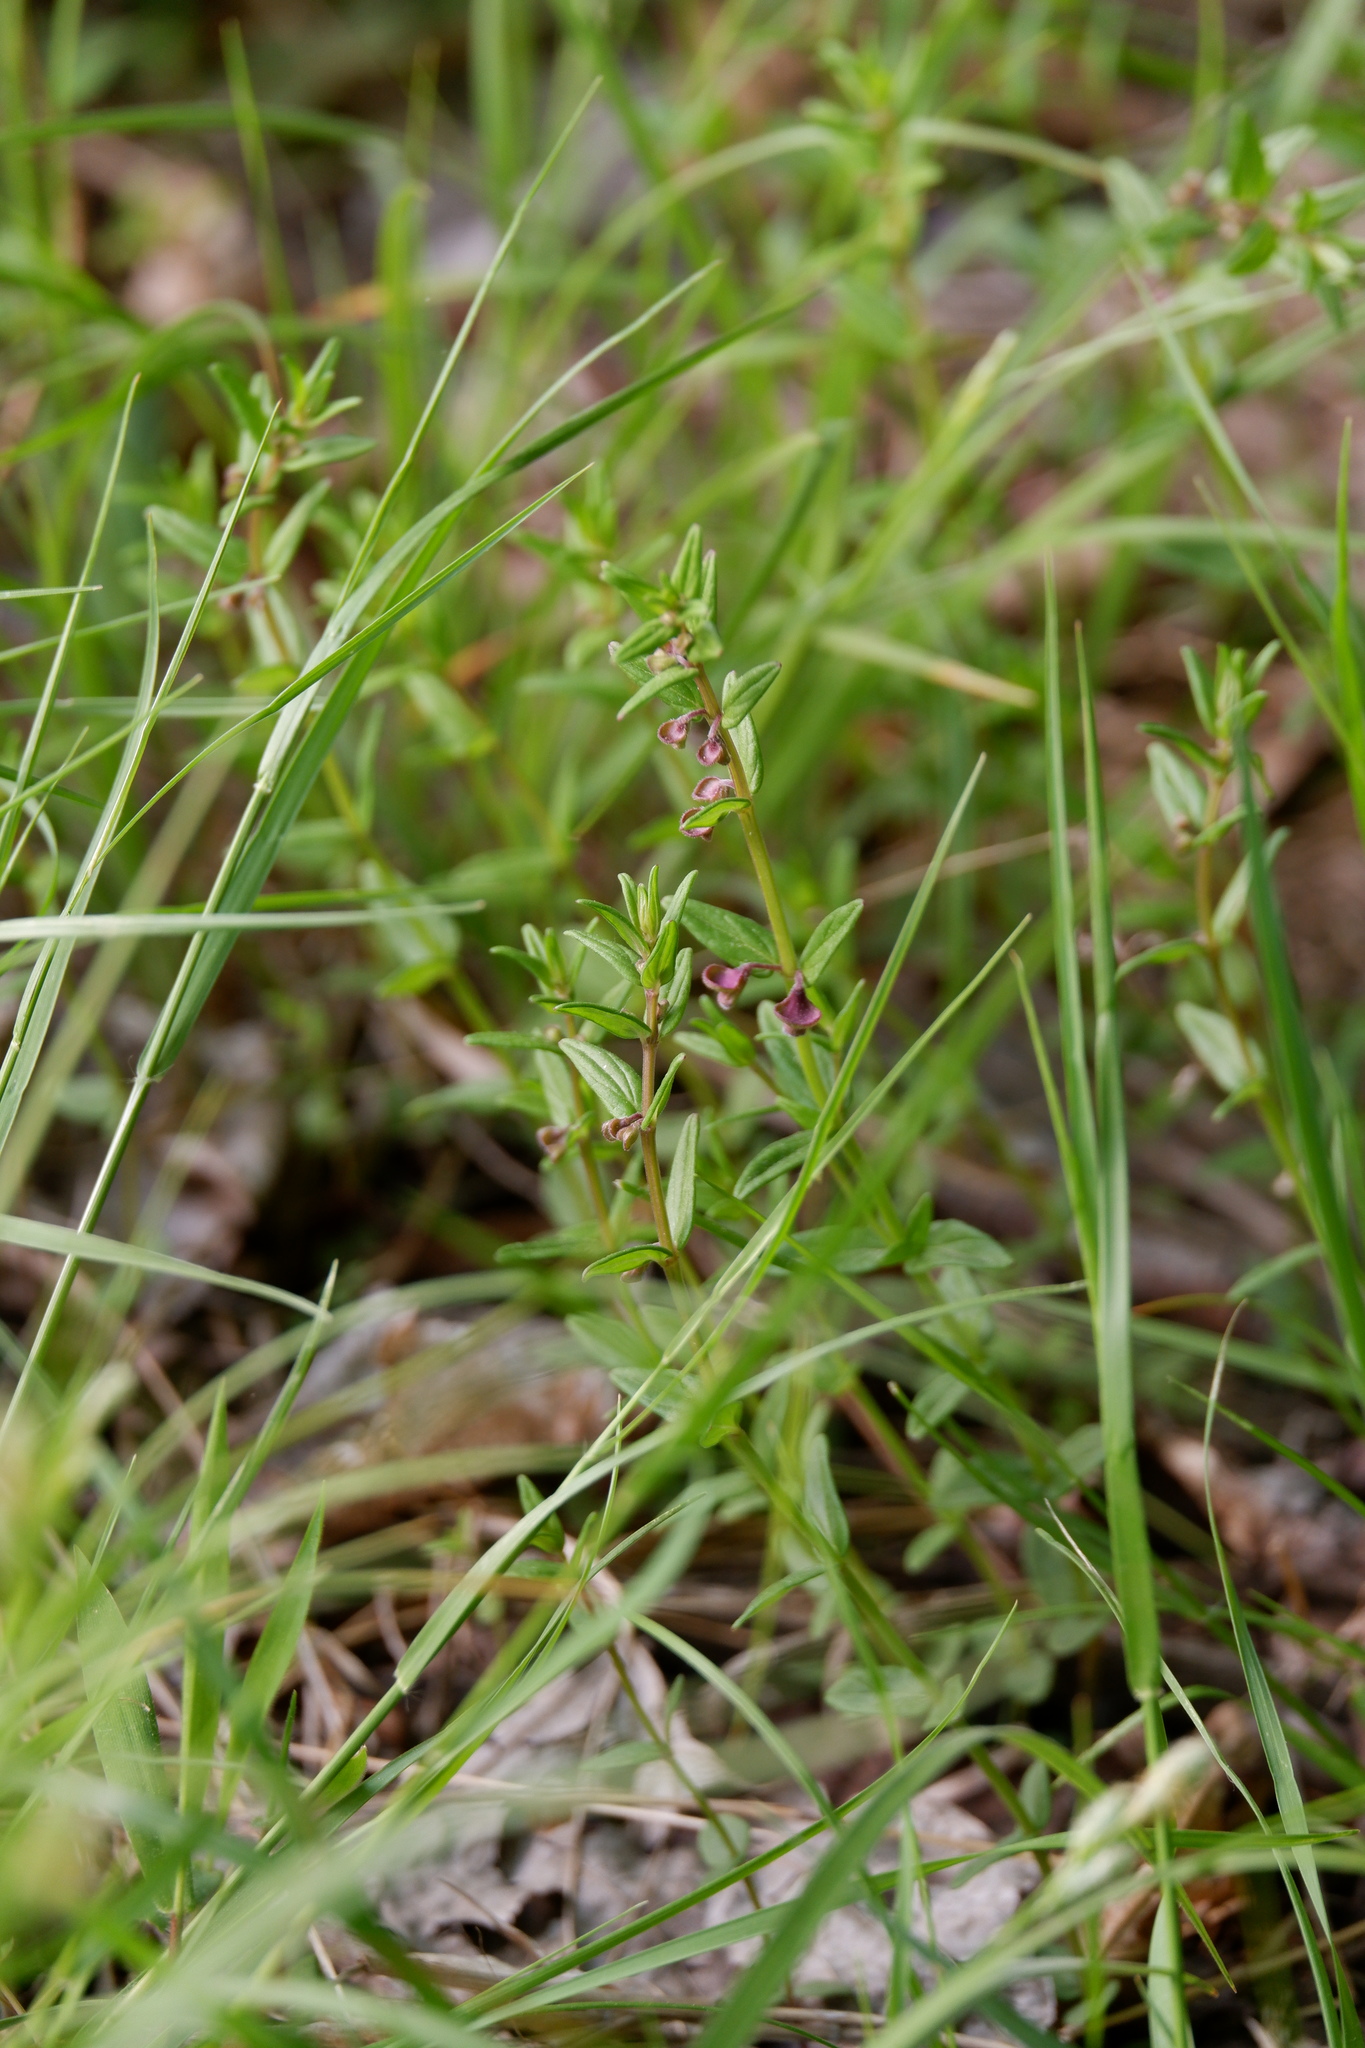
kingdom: Plantae
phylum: Tracheophyta
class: Magnoliopsida
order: Lamiales
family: Lamiaceae
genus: Scutellaria
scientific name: Scutellaria parvula
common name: Little scullcap
